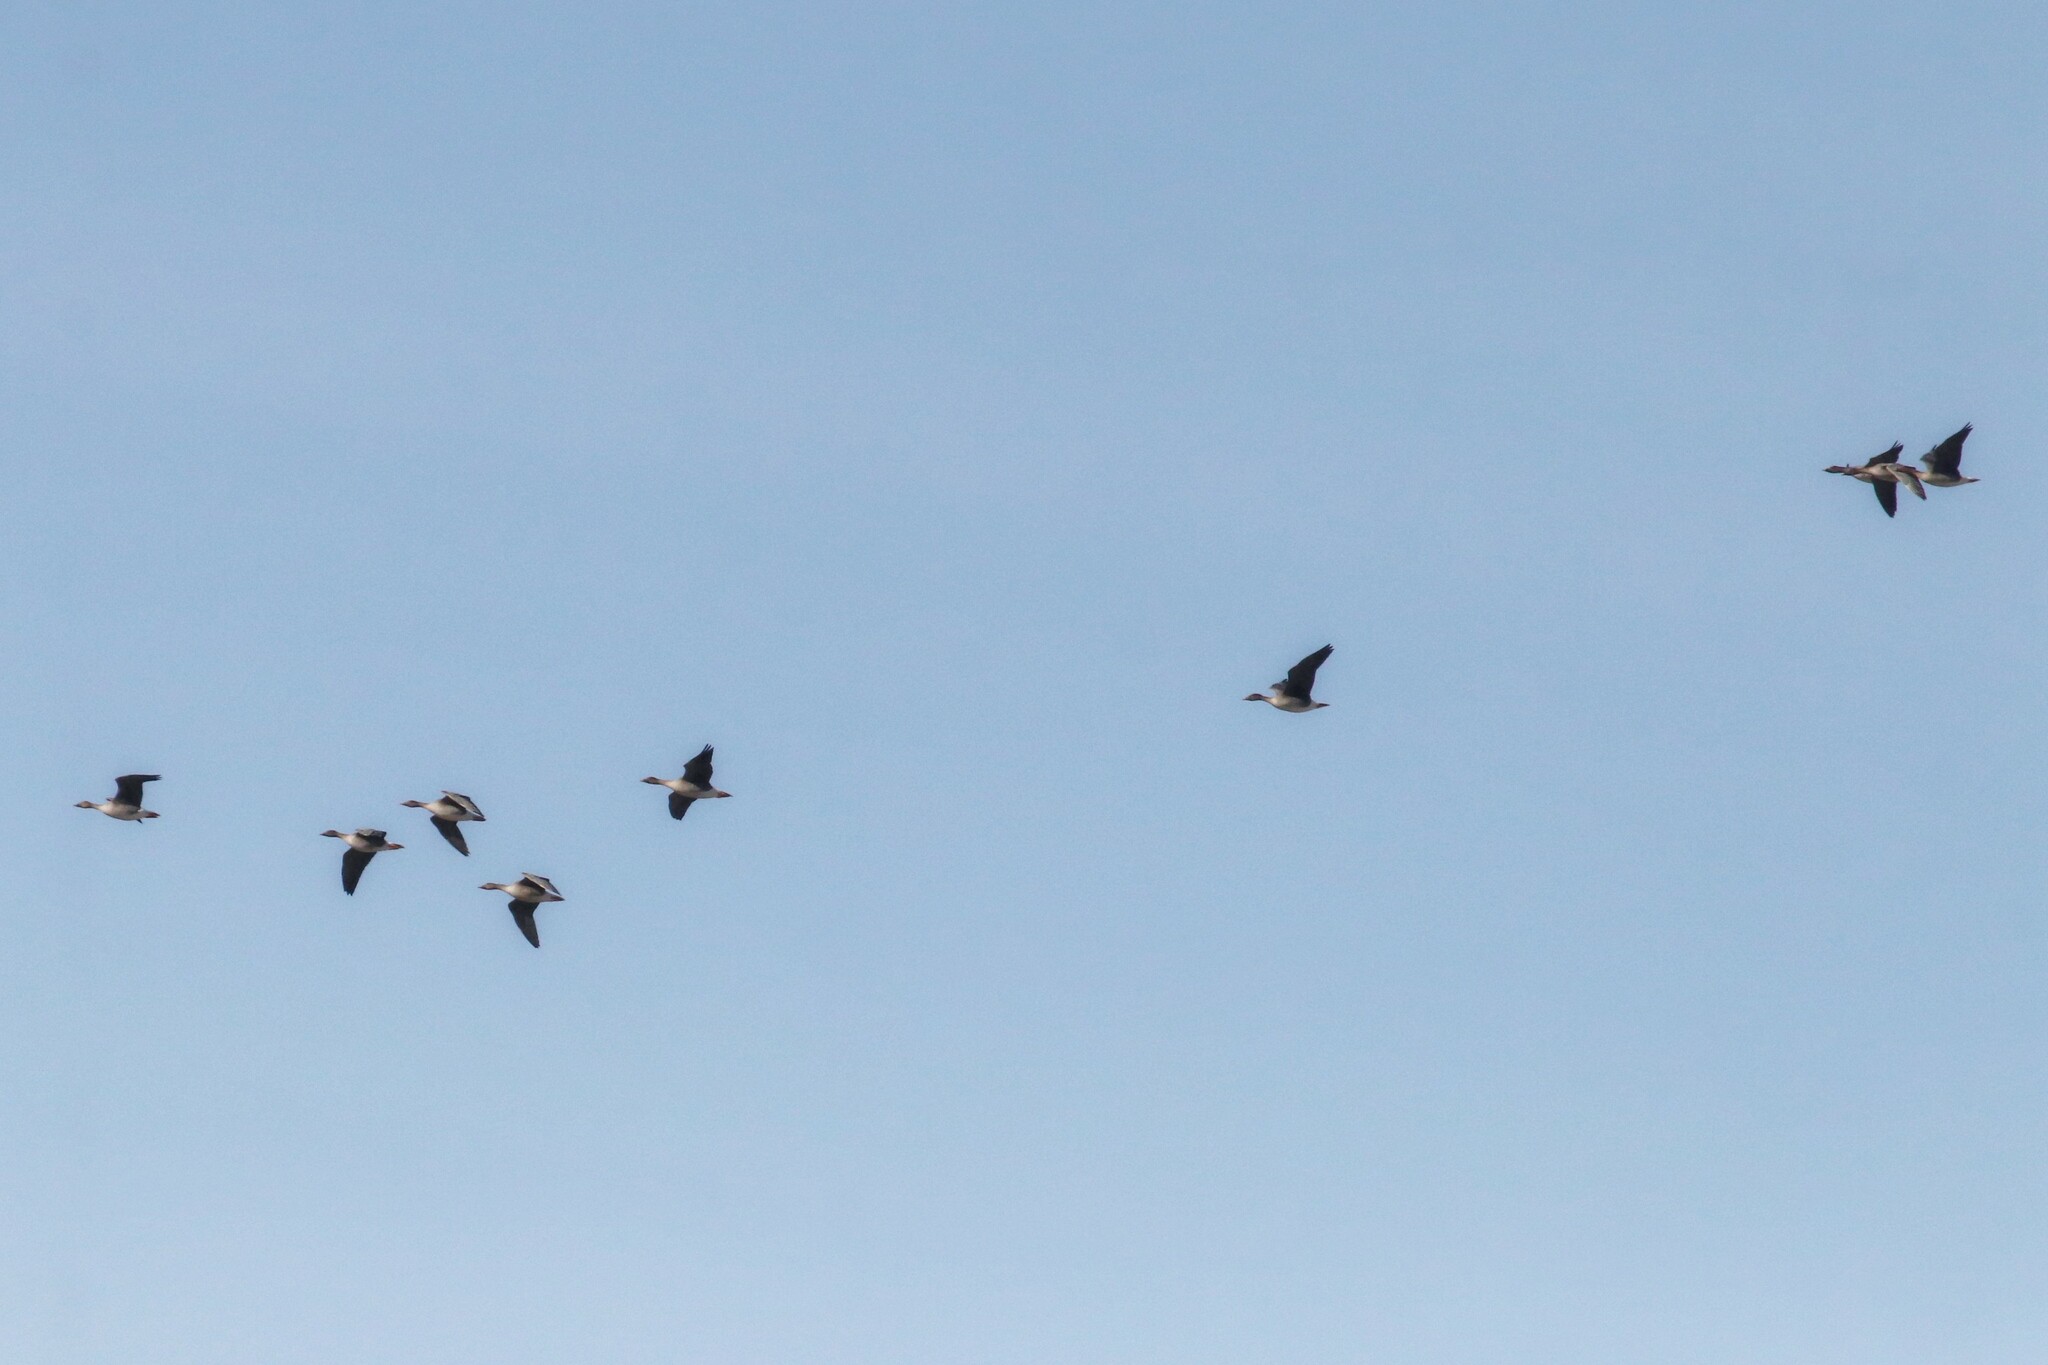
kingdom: Animalia
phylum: Chordata
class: Aves
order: Anseriformes
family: Anatidae
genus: Anser
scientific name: Anser serrirostris
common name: Tundra bean goose
